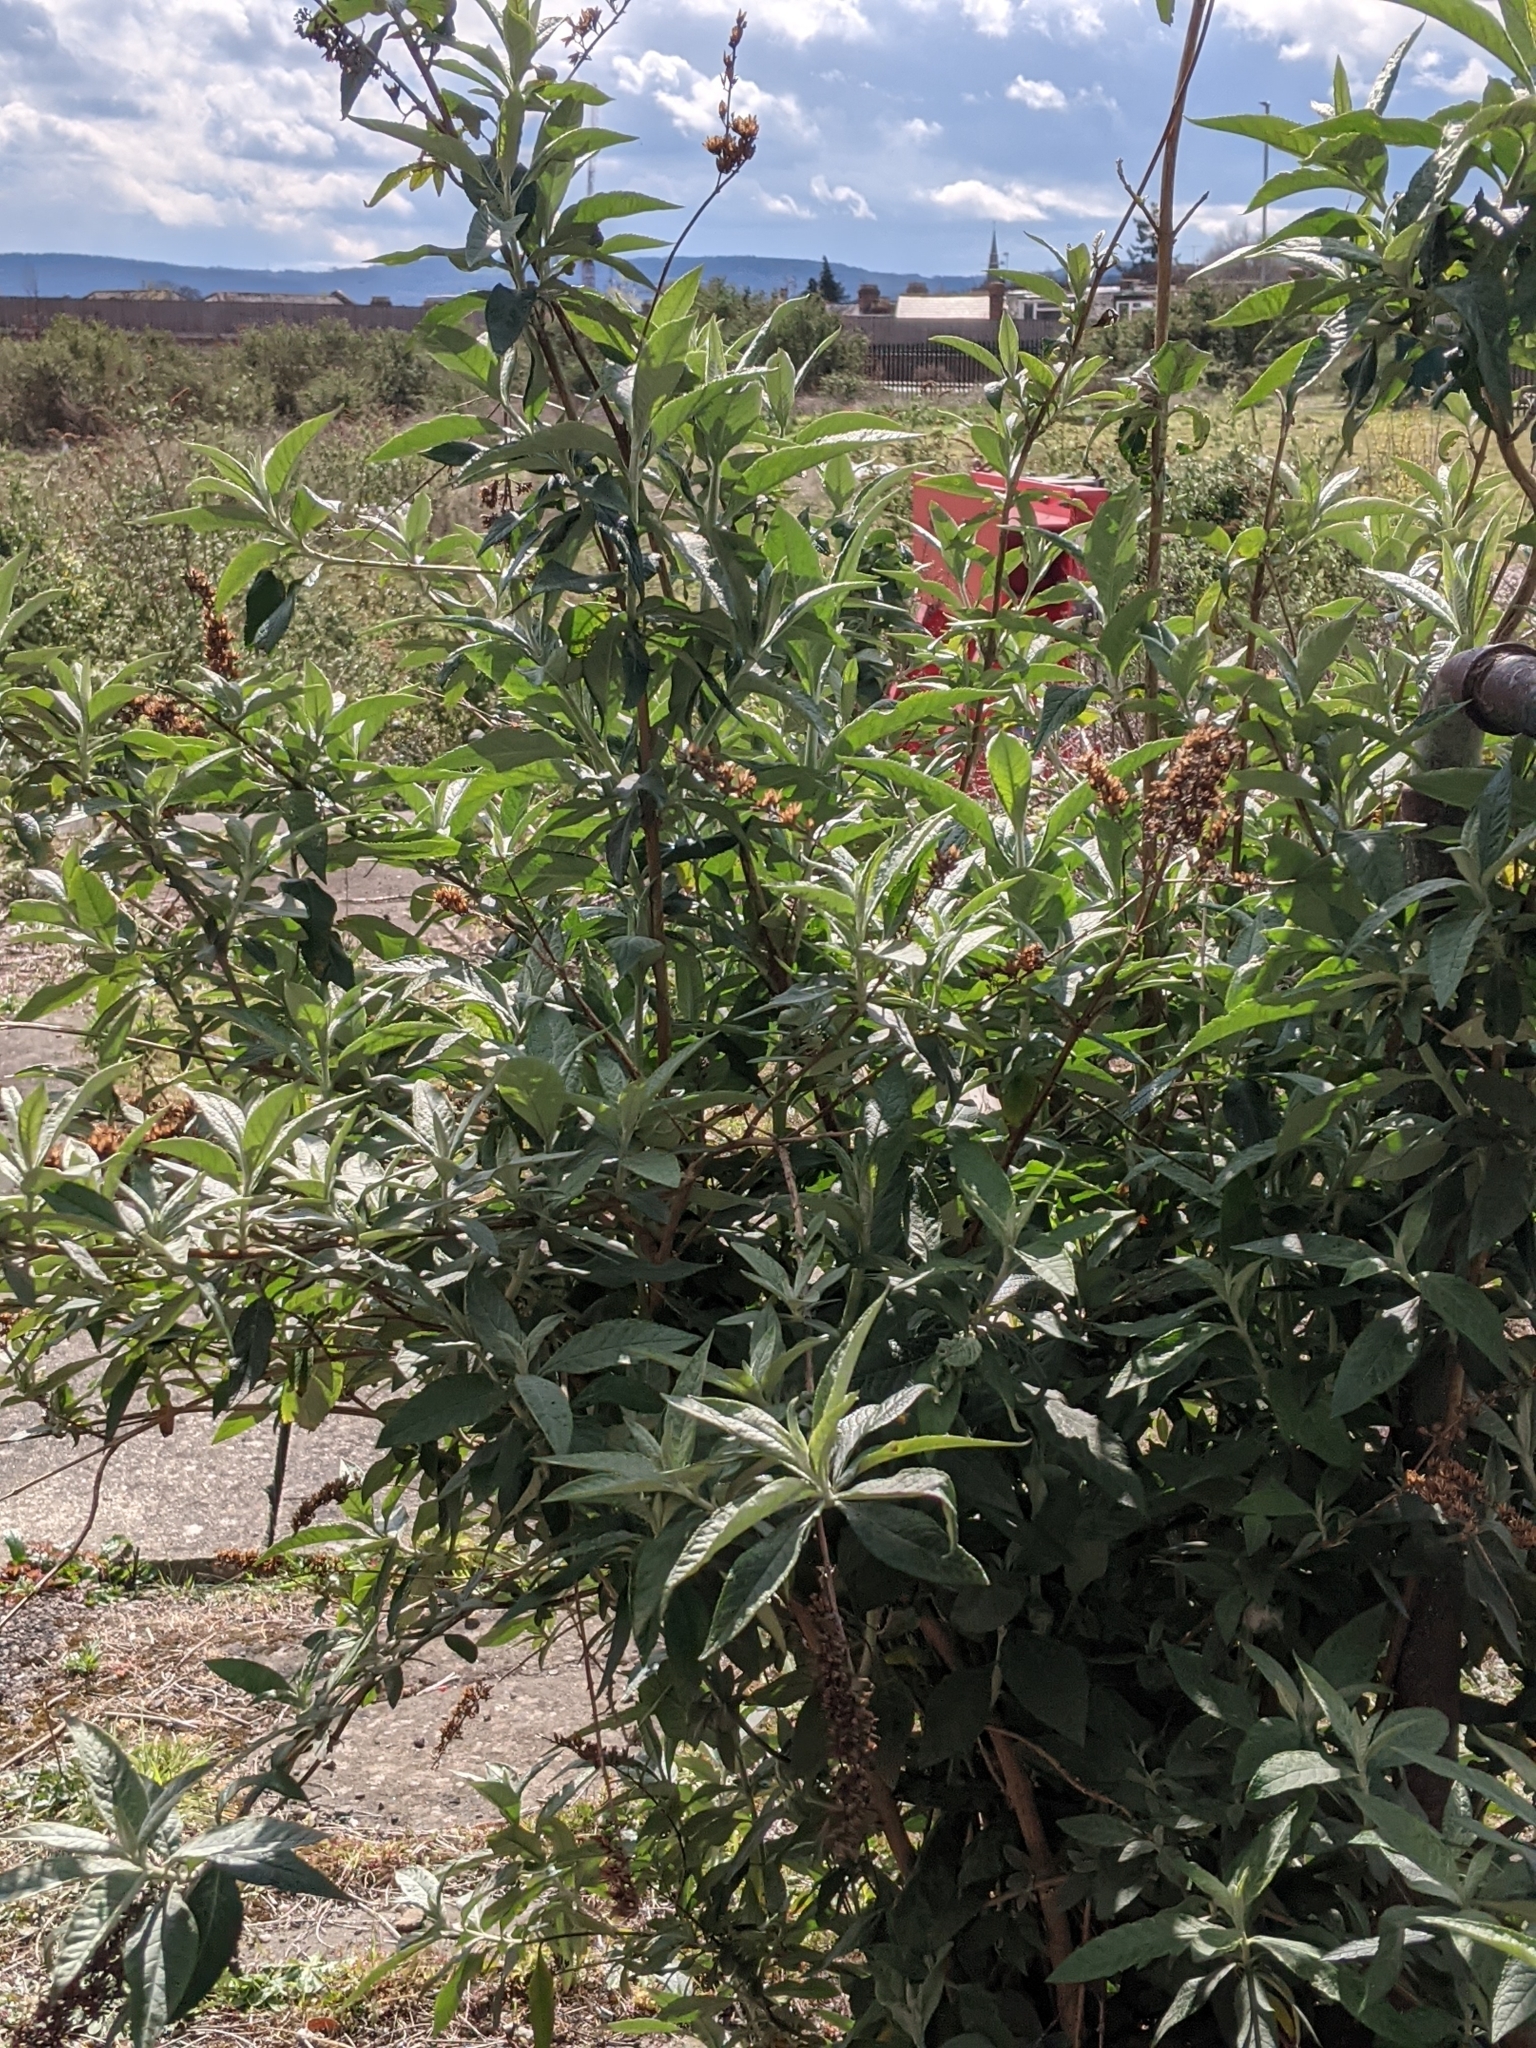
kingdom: Plantae
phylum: Tracheophyta
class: Magnoliopsida
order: Lamiales
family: Scrophulariaceae
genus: Buddleja
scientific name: Buddleja davidii
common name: Butterfly-bush
